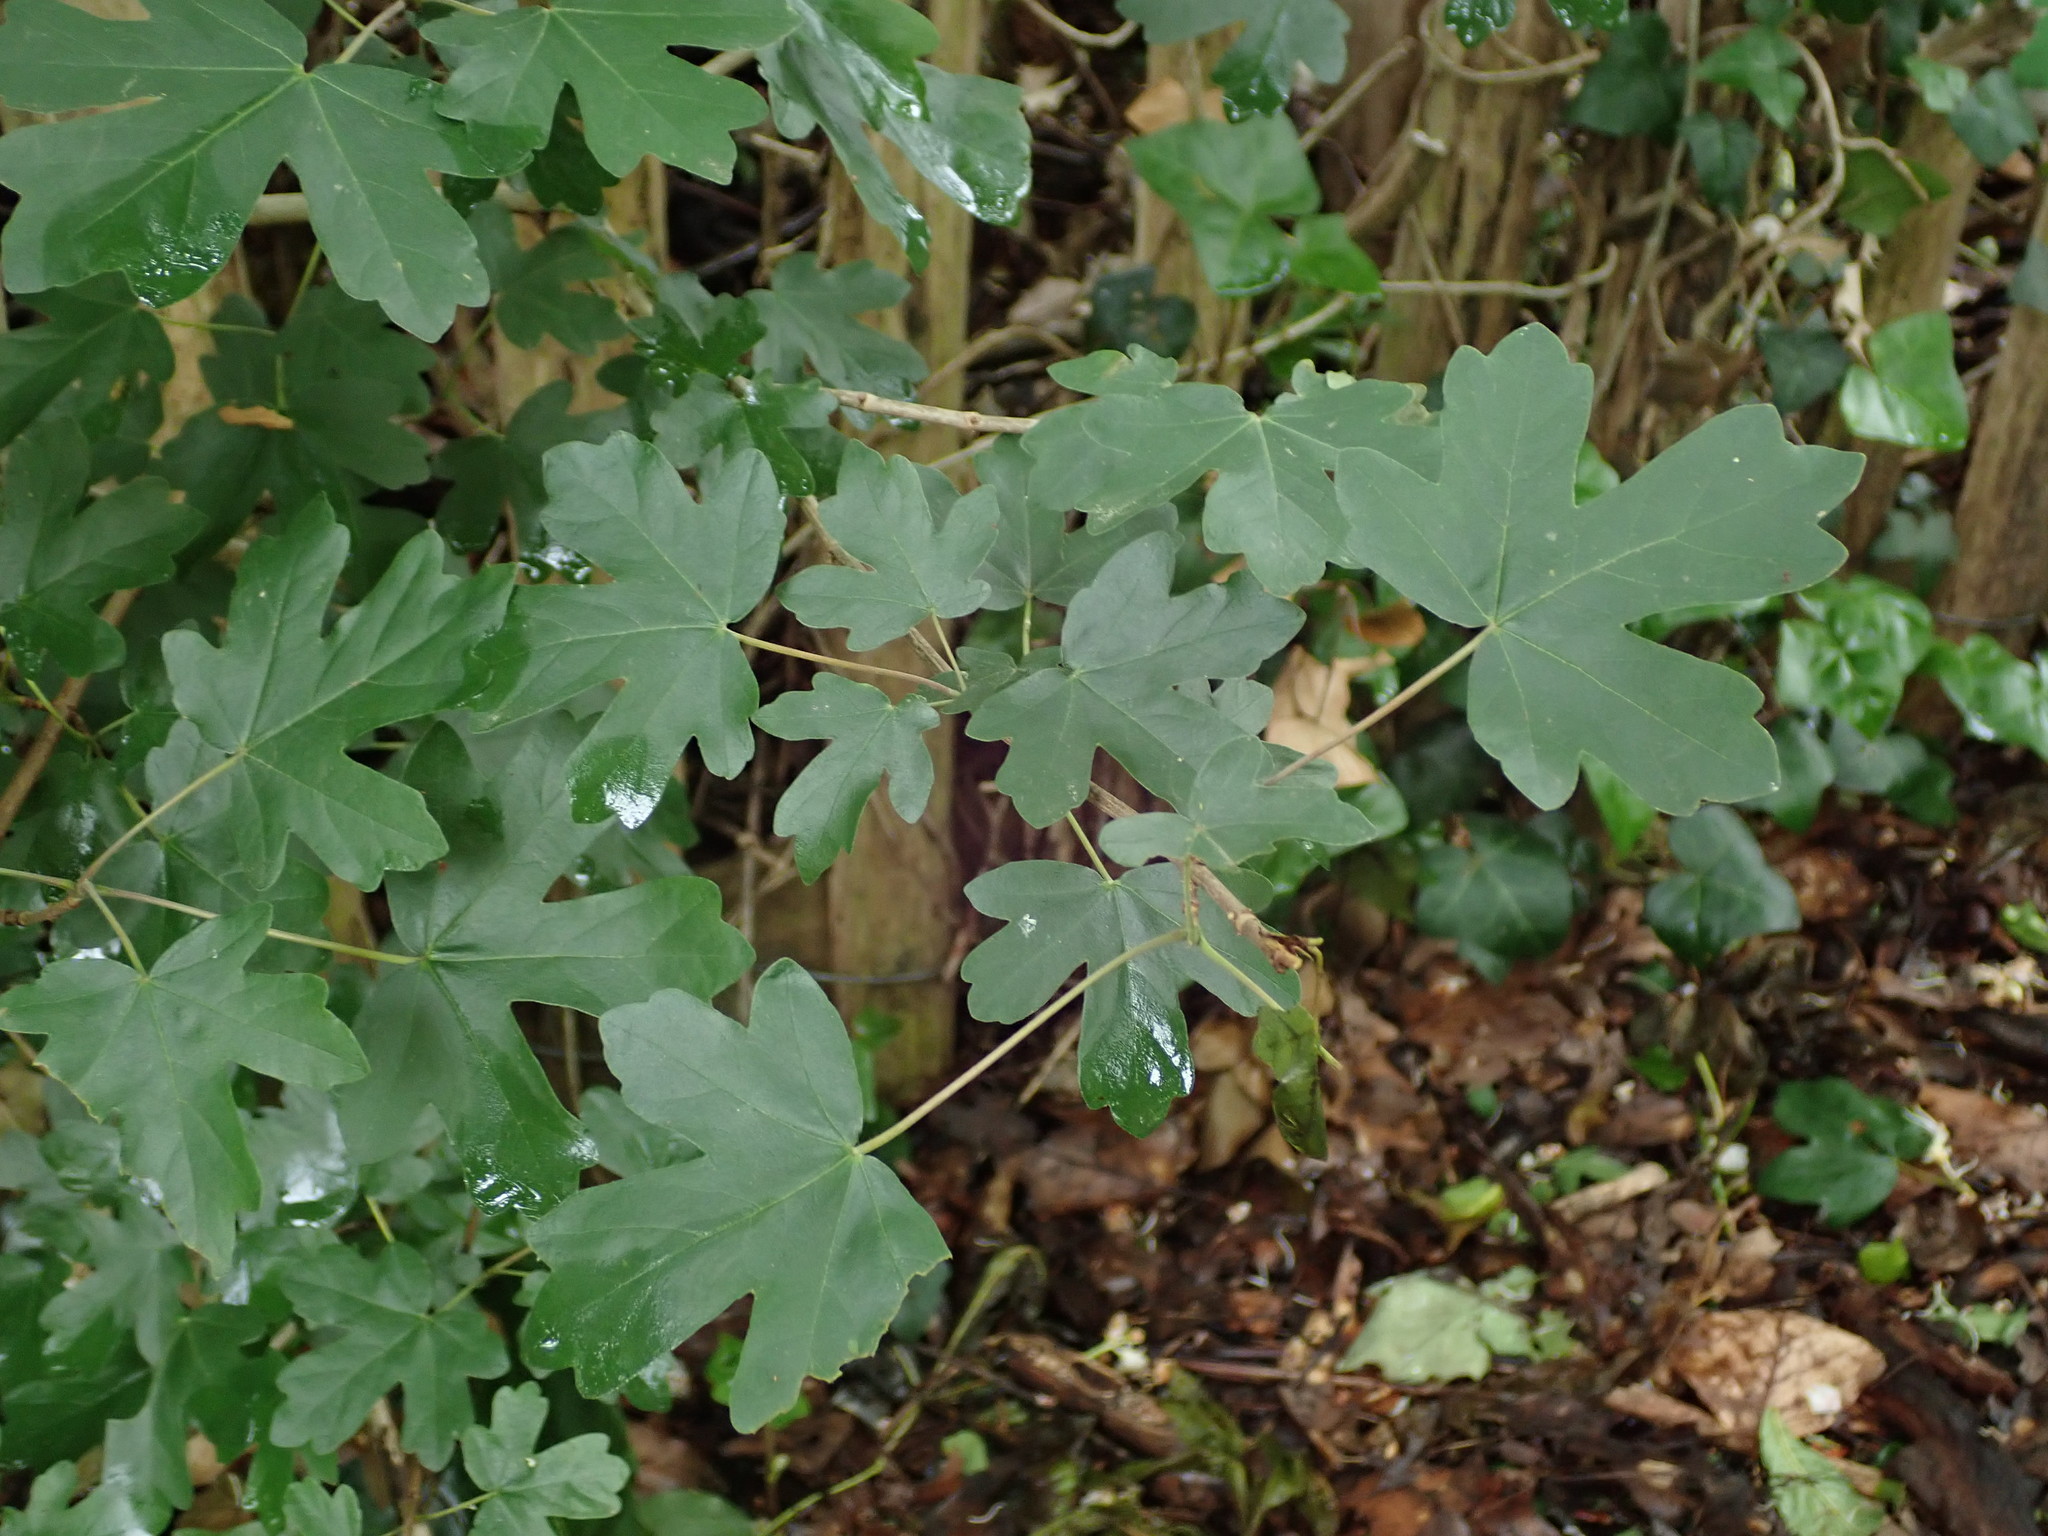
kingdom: Plantae
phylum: Tracheophyta
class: Magnoliopsida
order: Sapindales
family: Sapindaceae
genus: Acer
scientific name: Acer campestre
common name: Field maple
